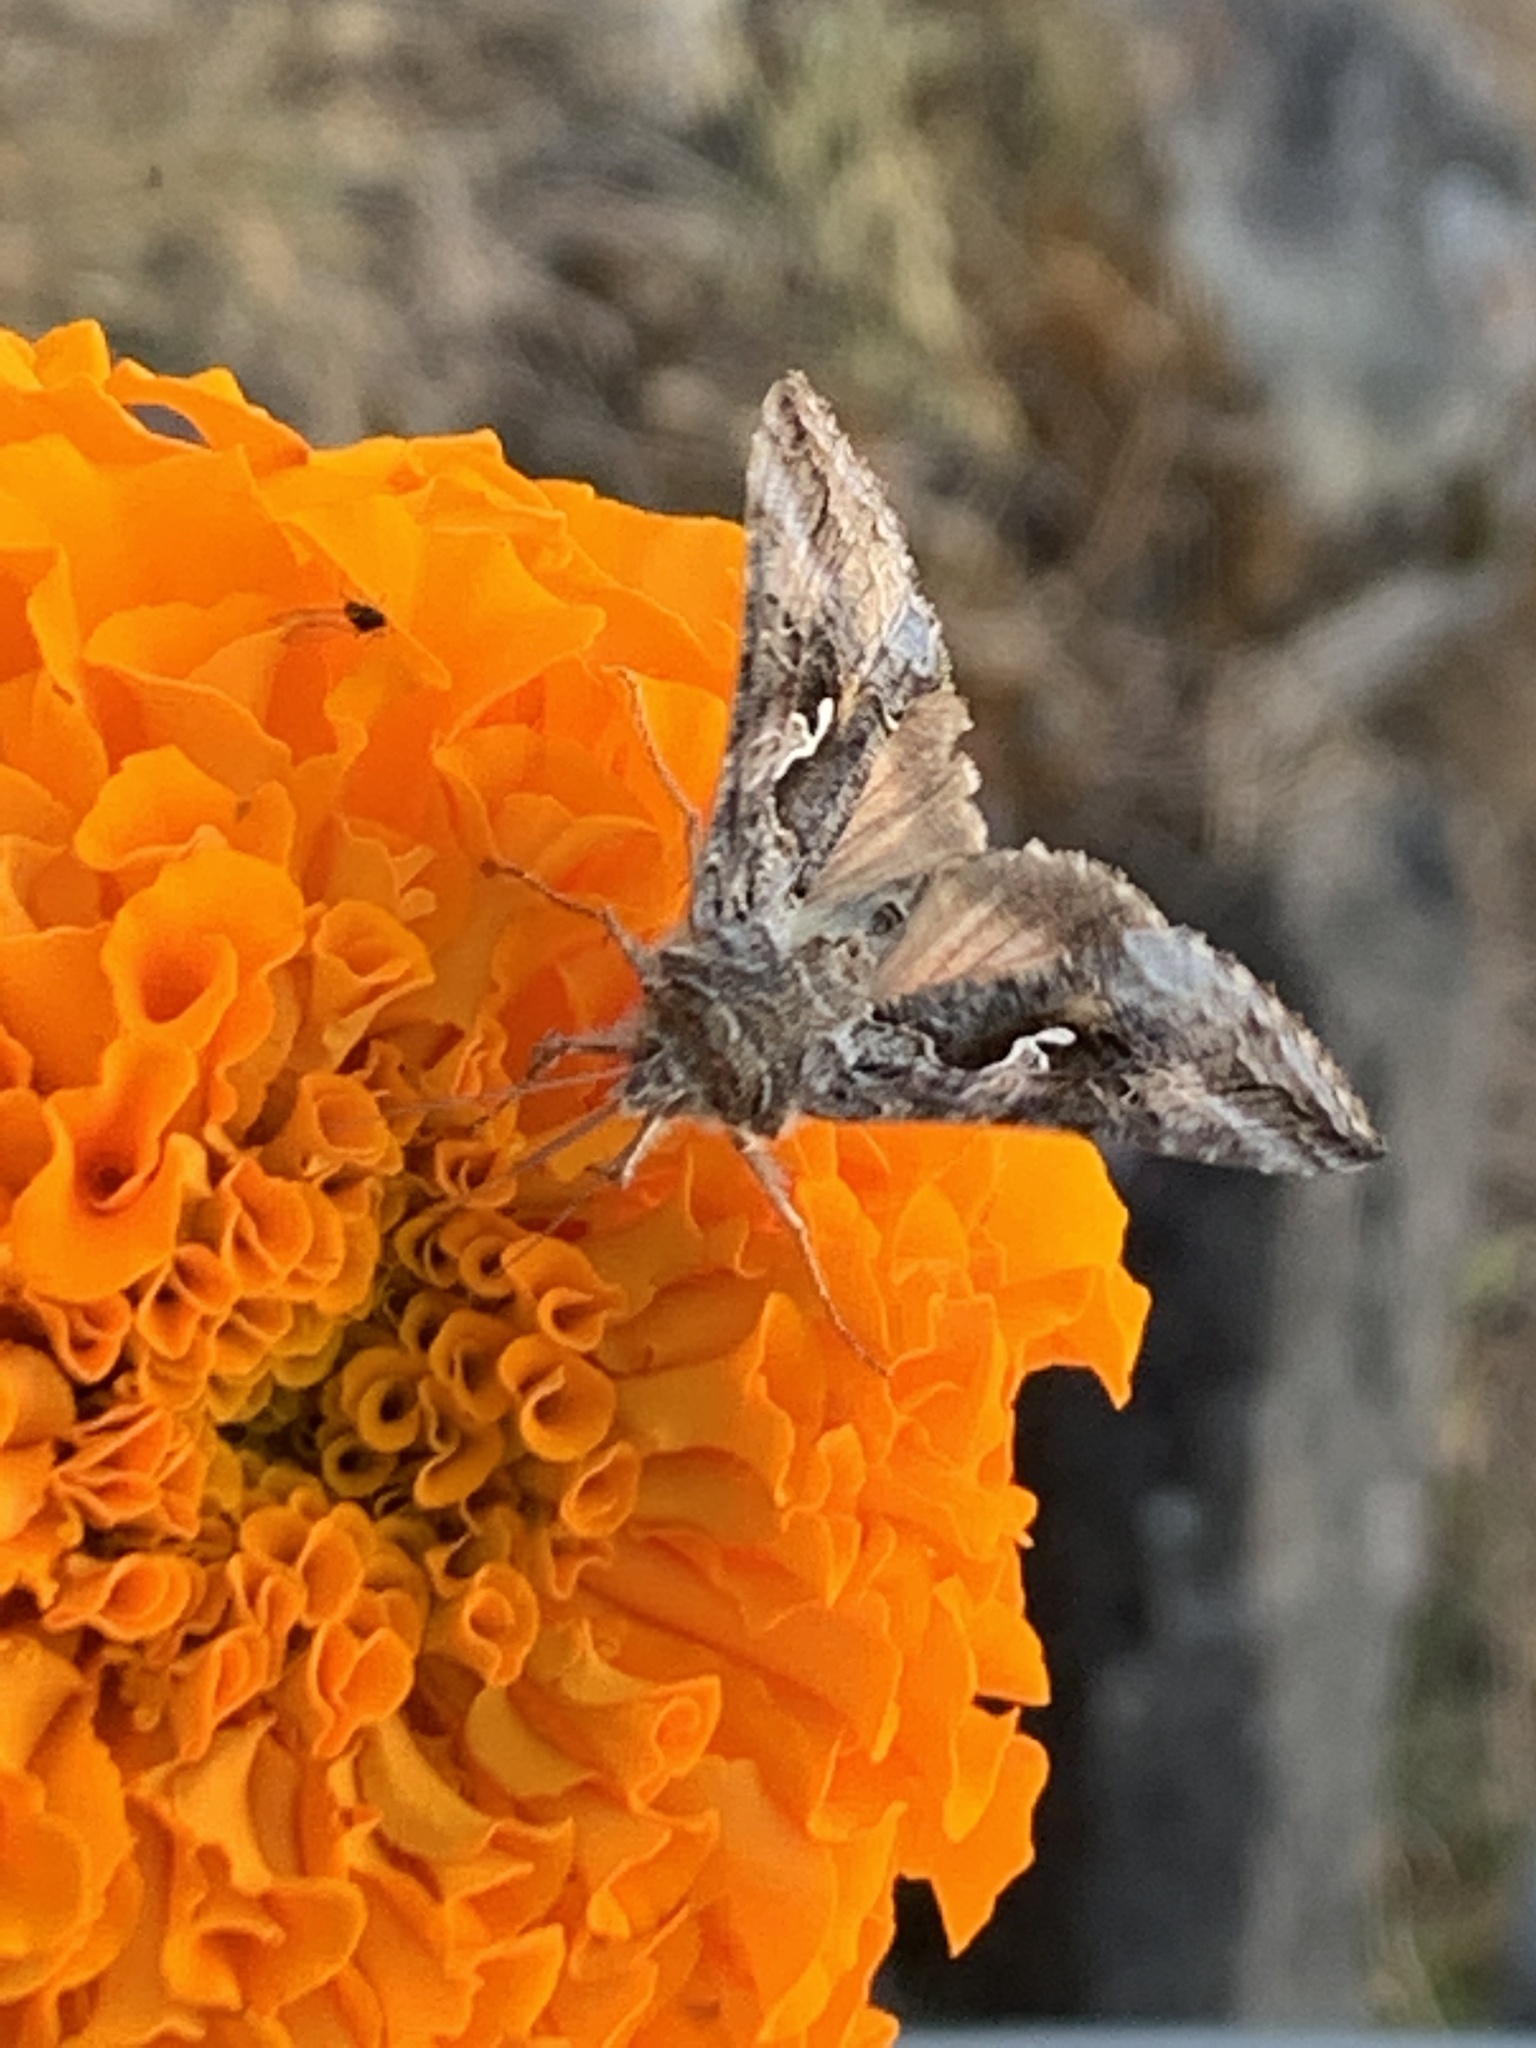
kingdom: Animalia
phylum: Arthropoda
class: Insecta
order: Lepidoptera
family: Noctuidae
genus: Autographa
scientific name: Autographa californica
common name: Alfalfa looper
